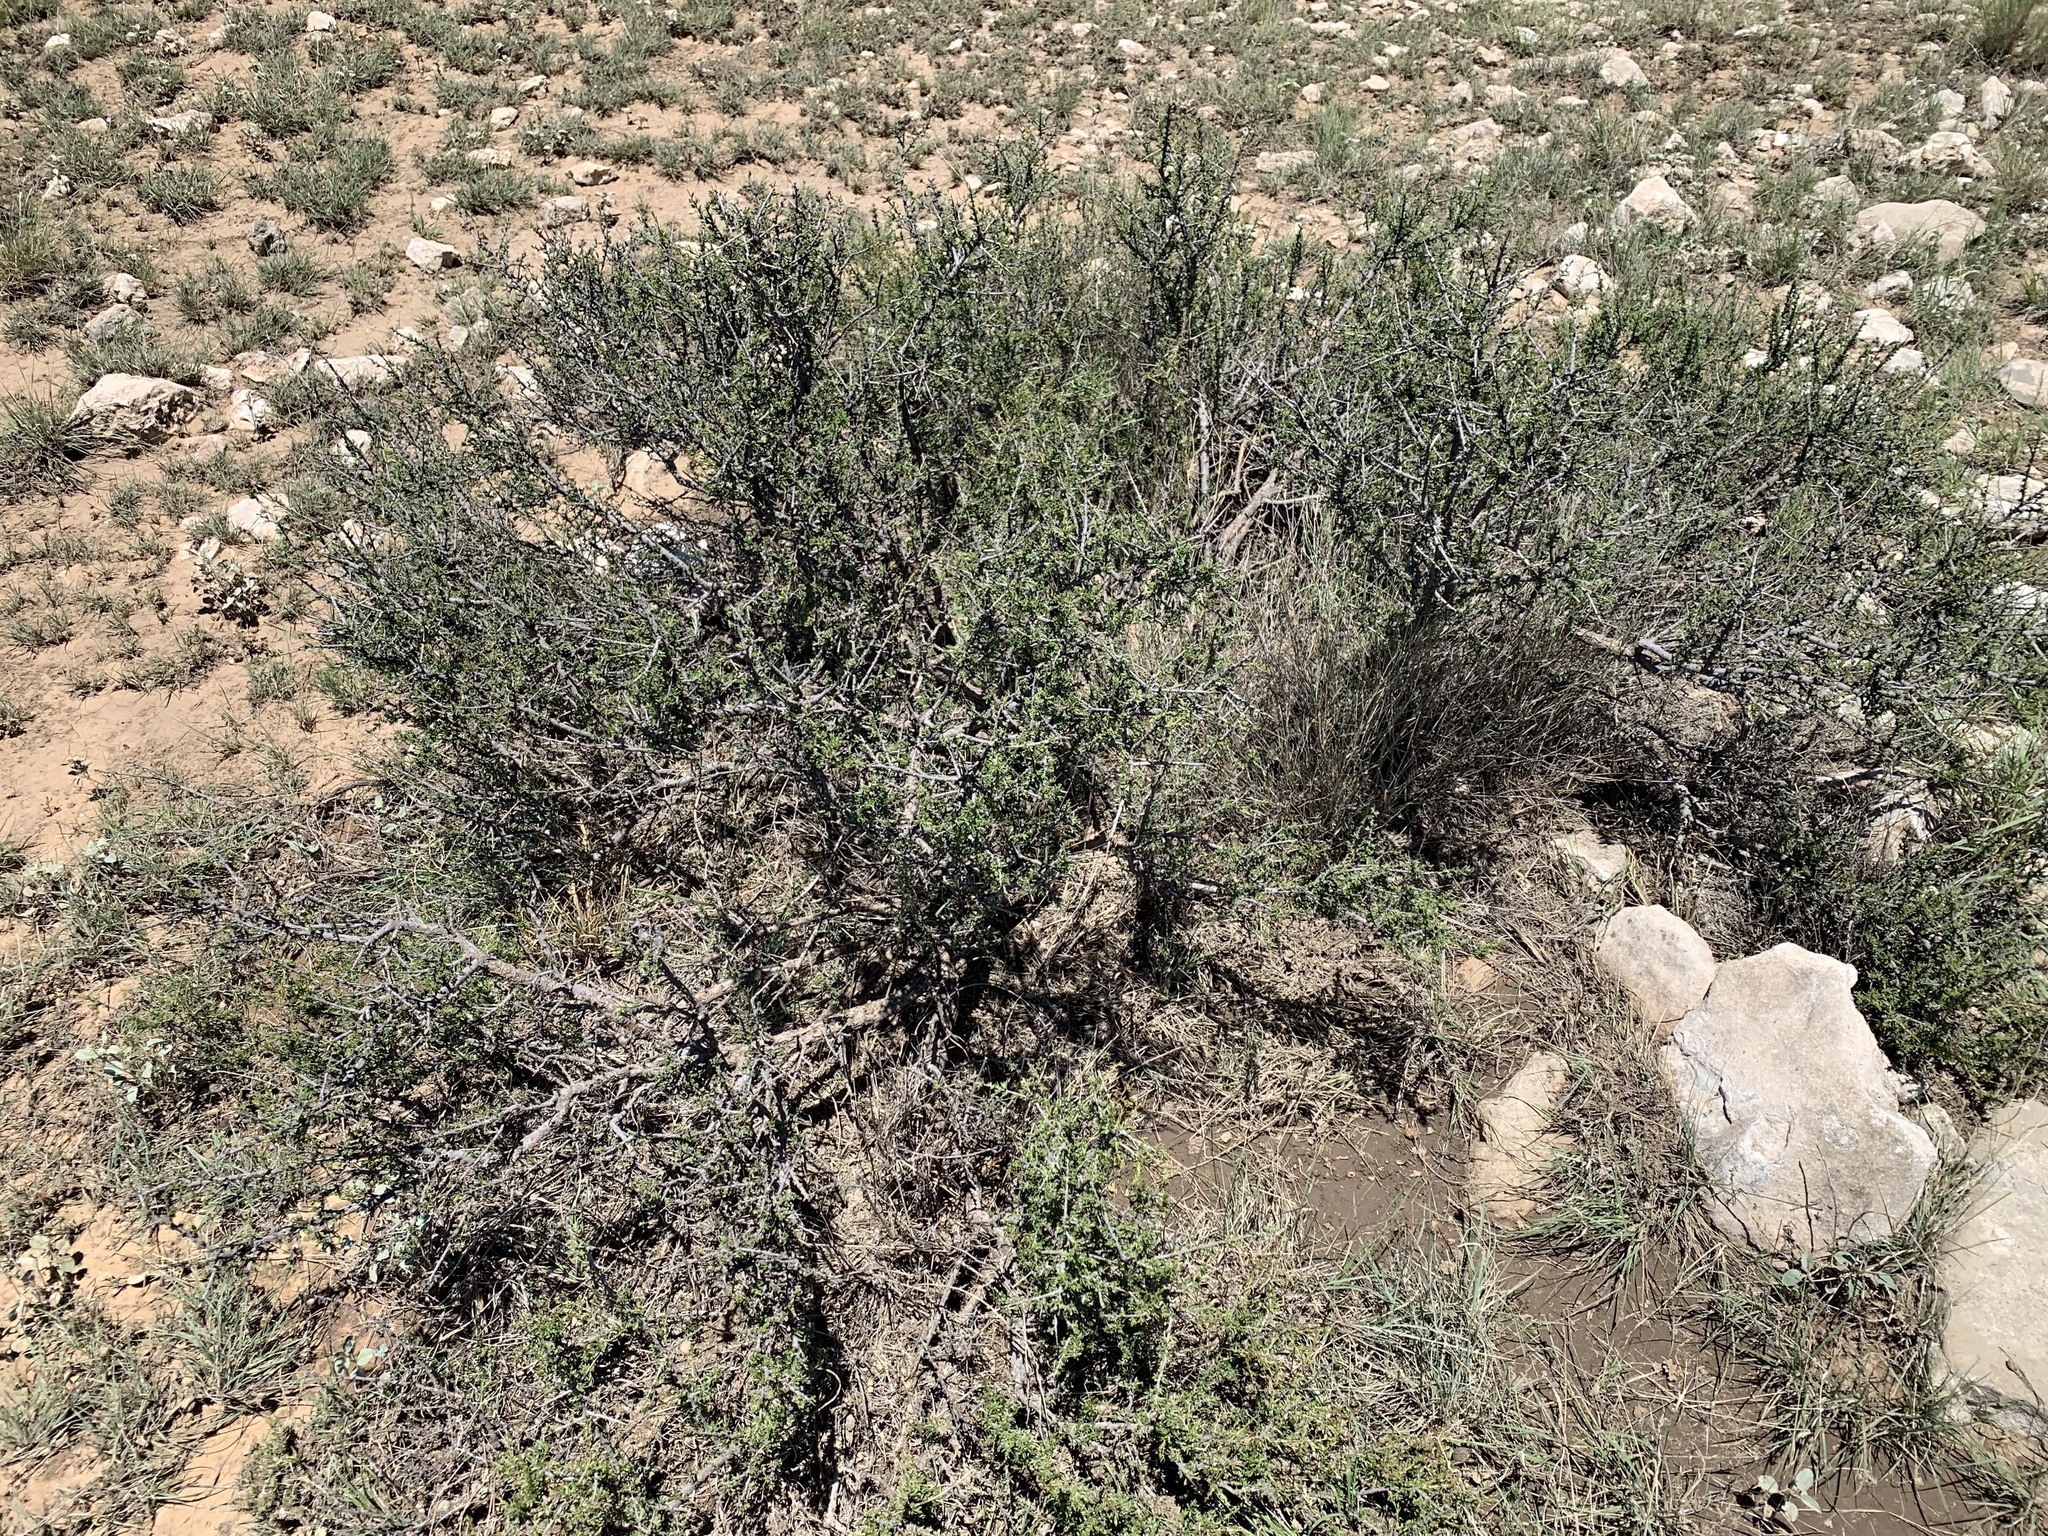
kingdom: Plantae
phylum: Tracheophyta
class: Magnoliopsida
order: Rosales
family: Rhamnaceae
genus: Condalia
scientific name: Condalia ericoides
